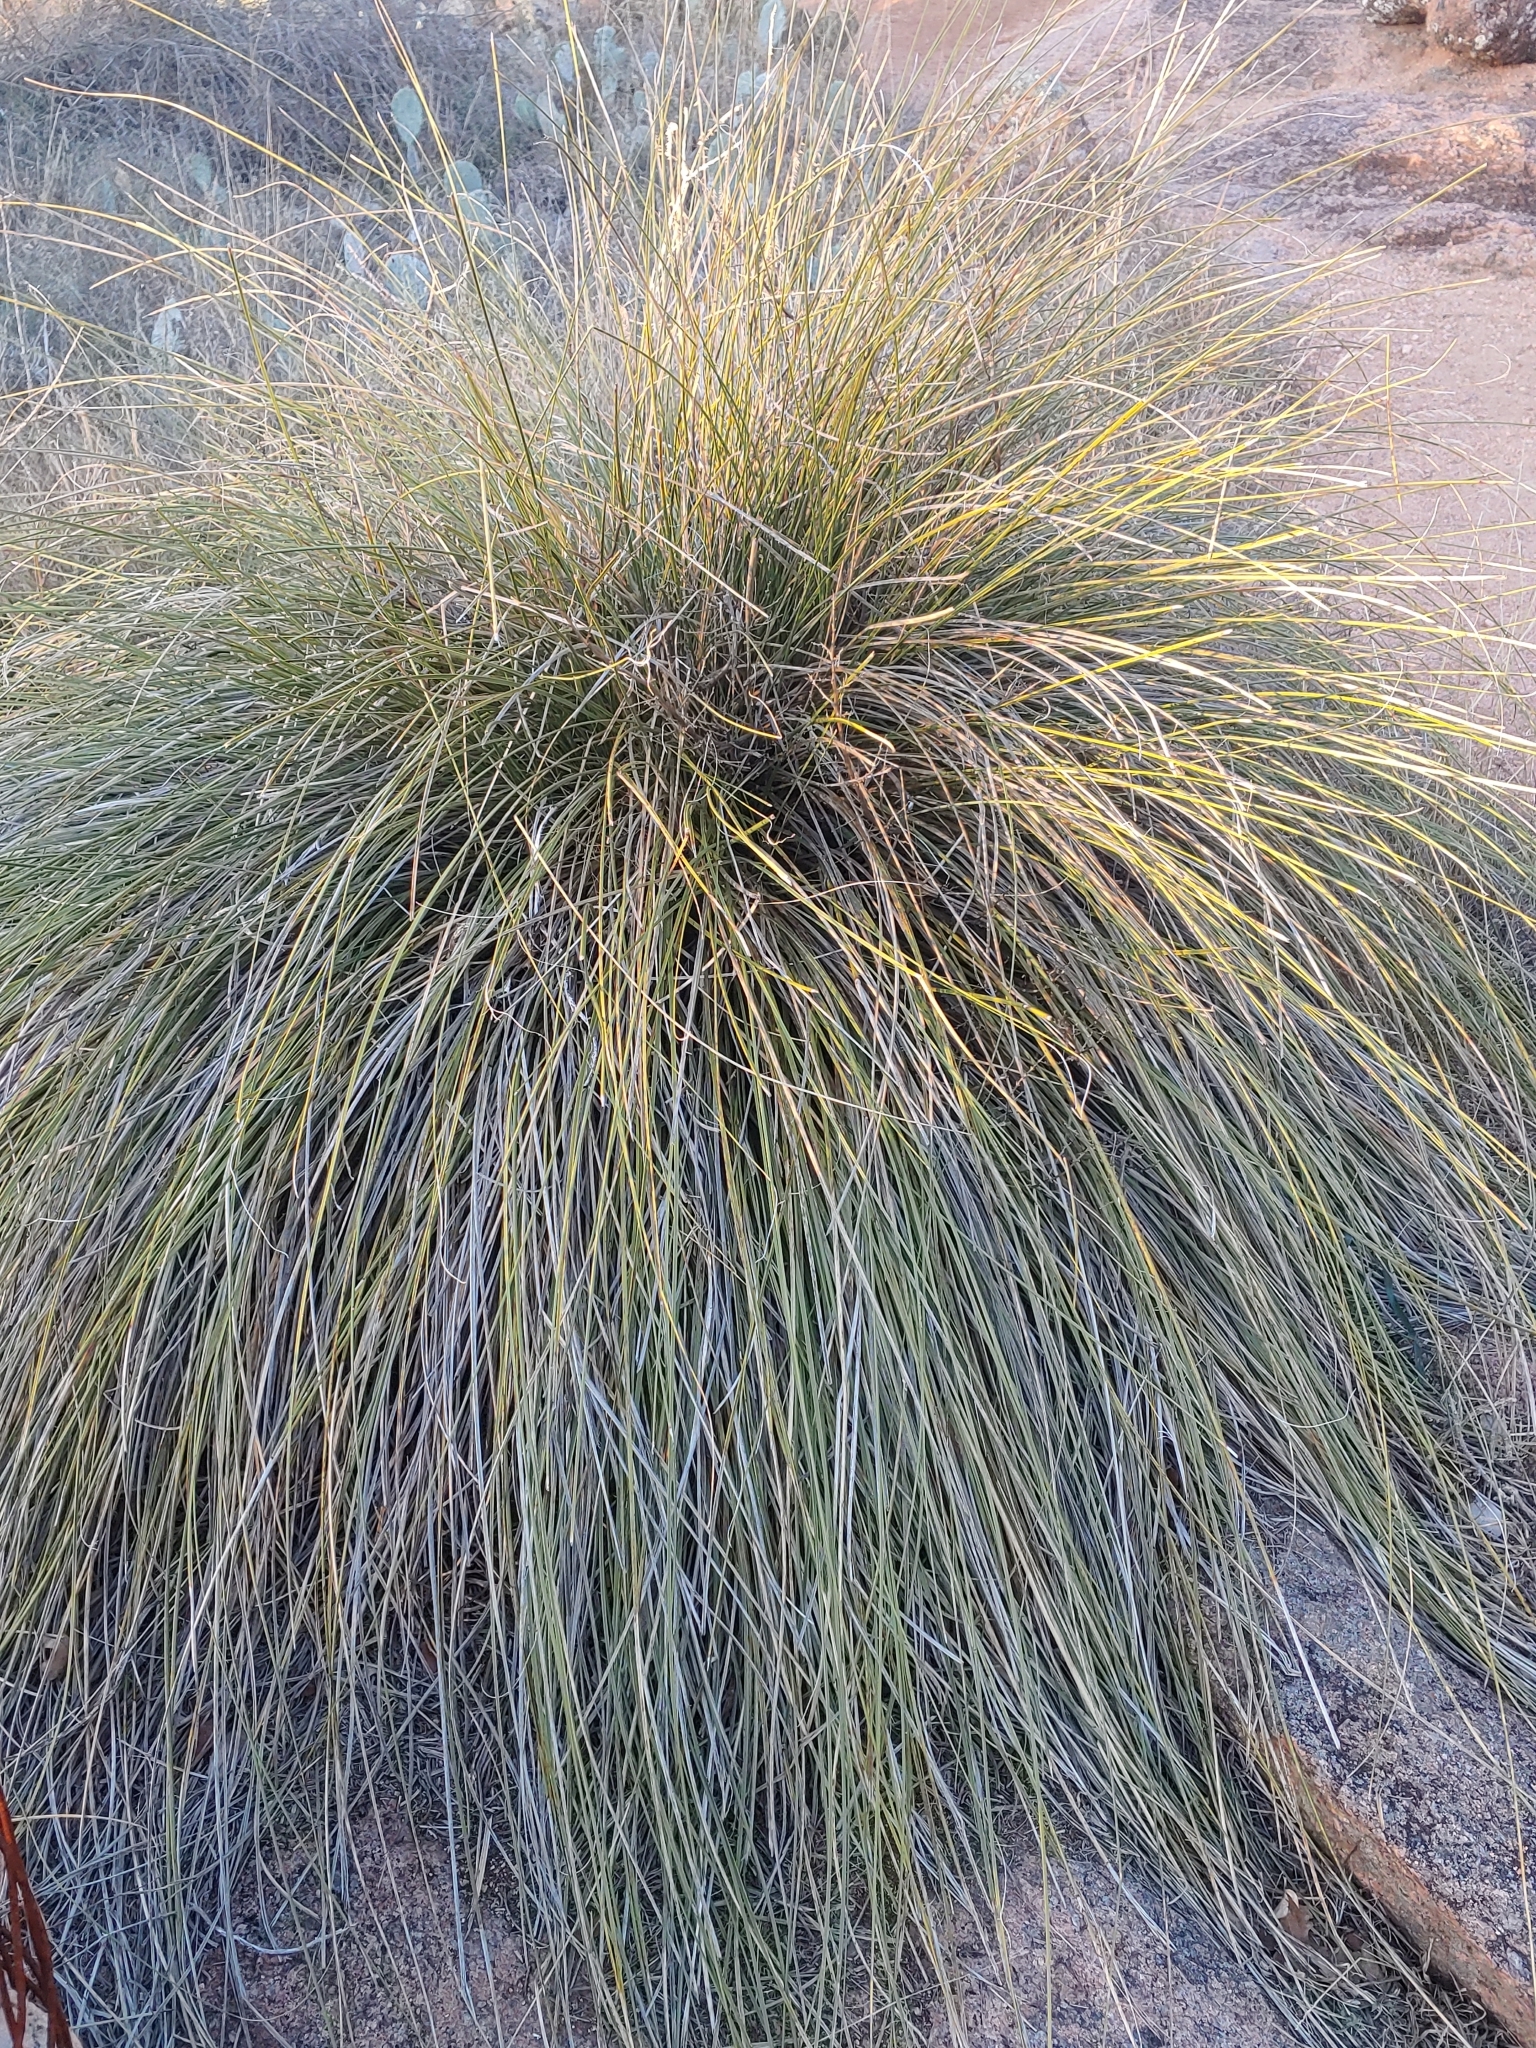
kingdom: Plantae
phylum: Tracheophyta
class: Liliopsida
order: Asparagales
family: Asparagaceae
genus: Nolina
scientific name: Nolina texana
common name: Texas sacahuiste
